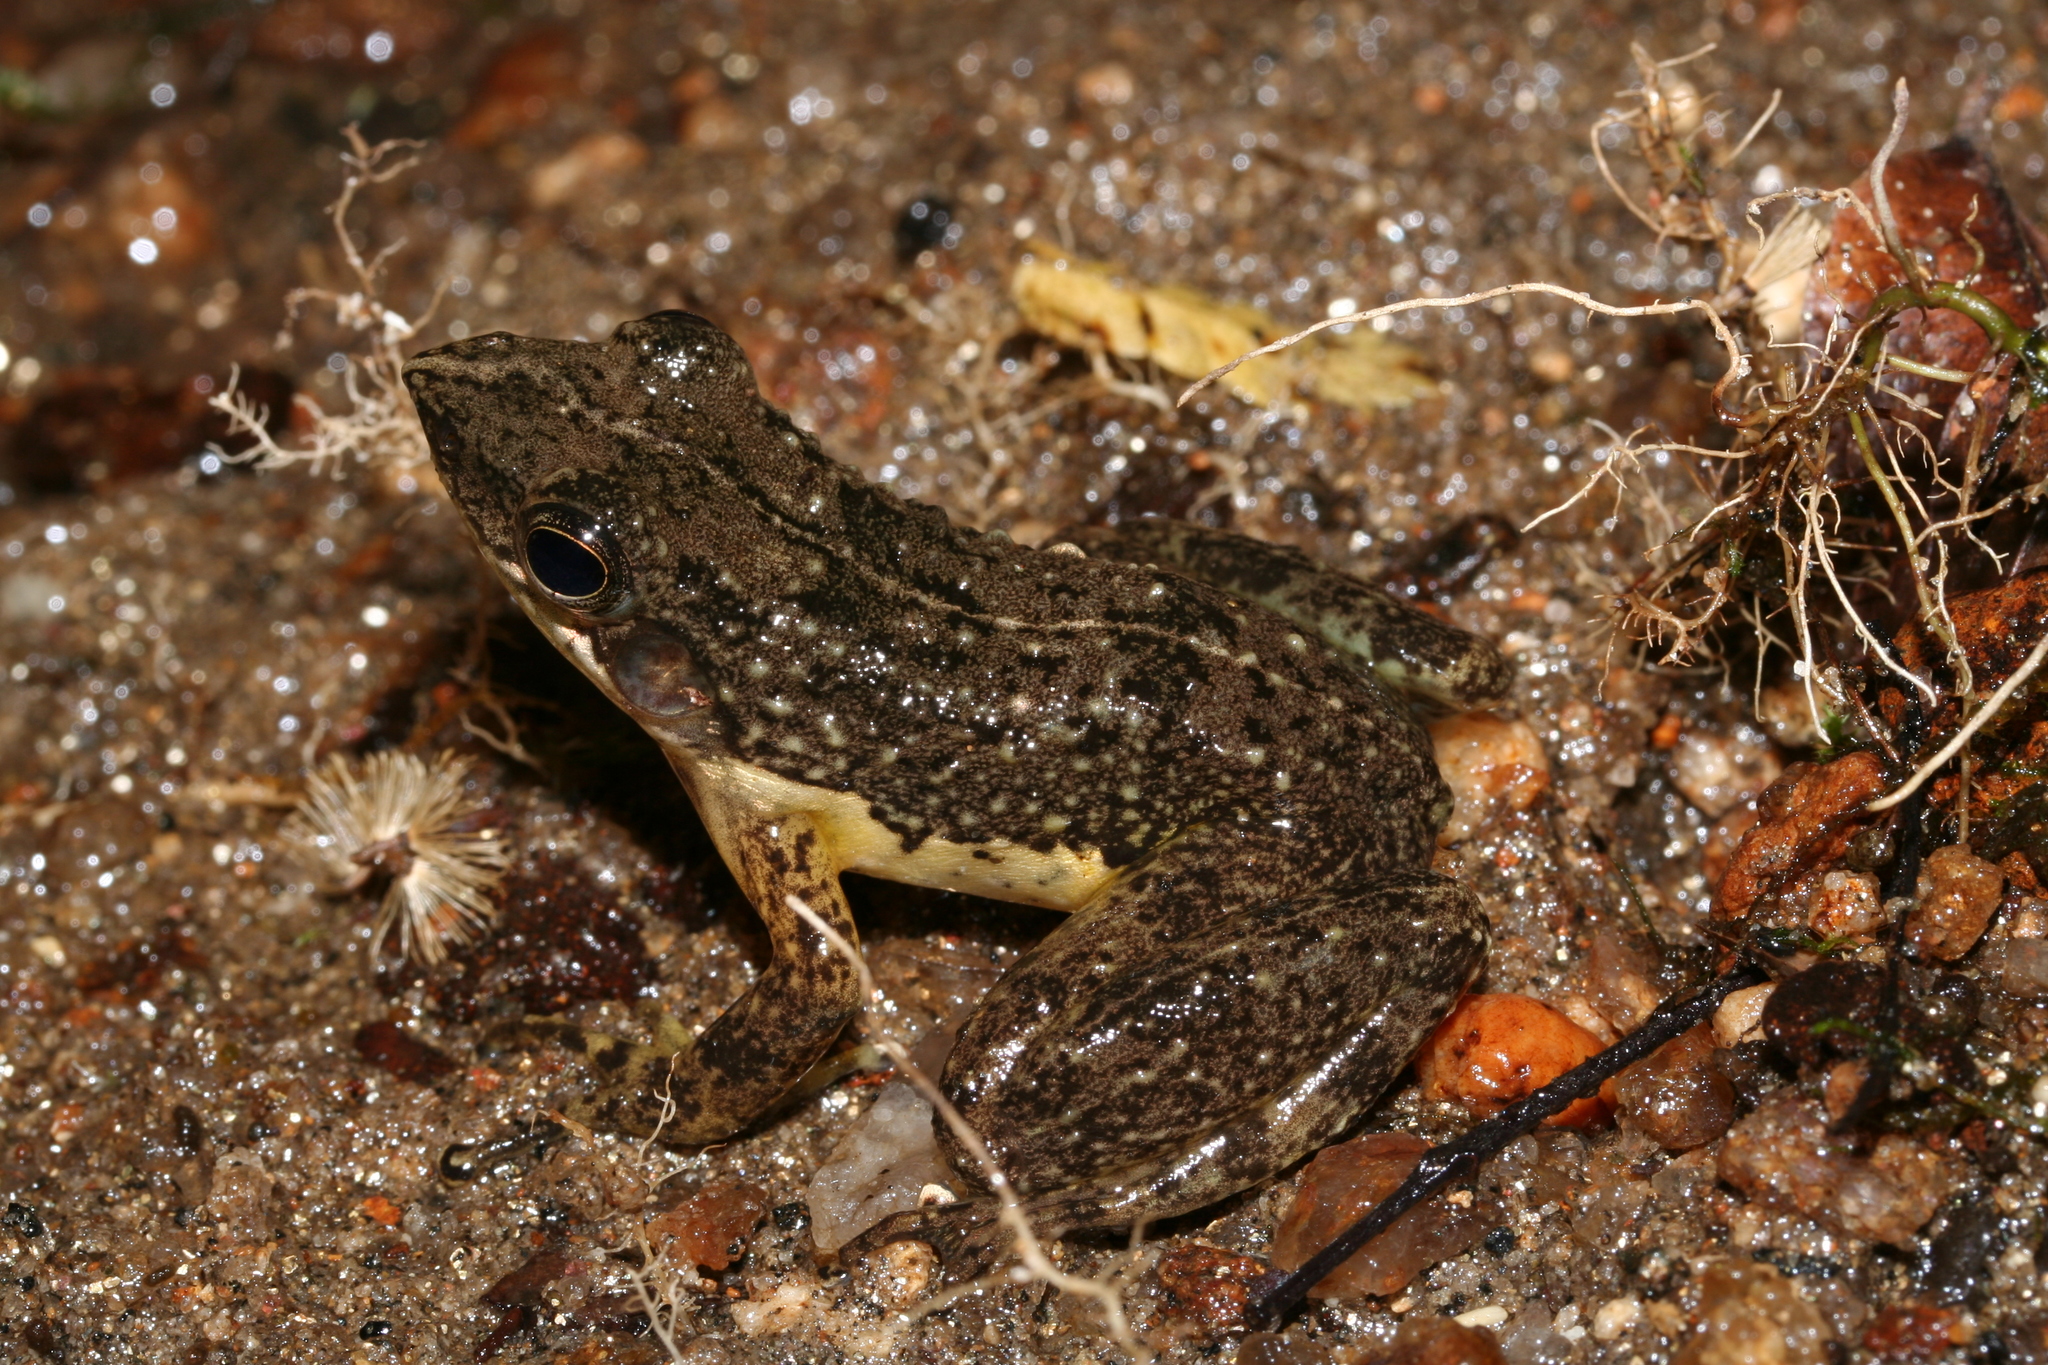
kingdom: Animalia
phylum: Chordata
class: Amphibia
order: Anura
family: Mantellidae
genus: Mantidactylus
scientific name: Mantidactylus majori
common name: Ivohimanita madagascar frog
